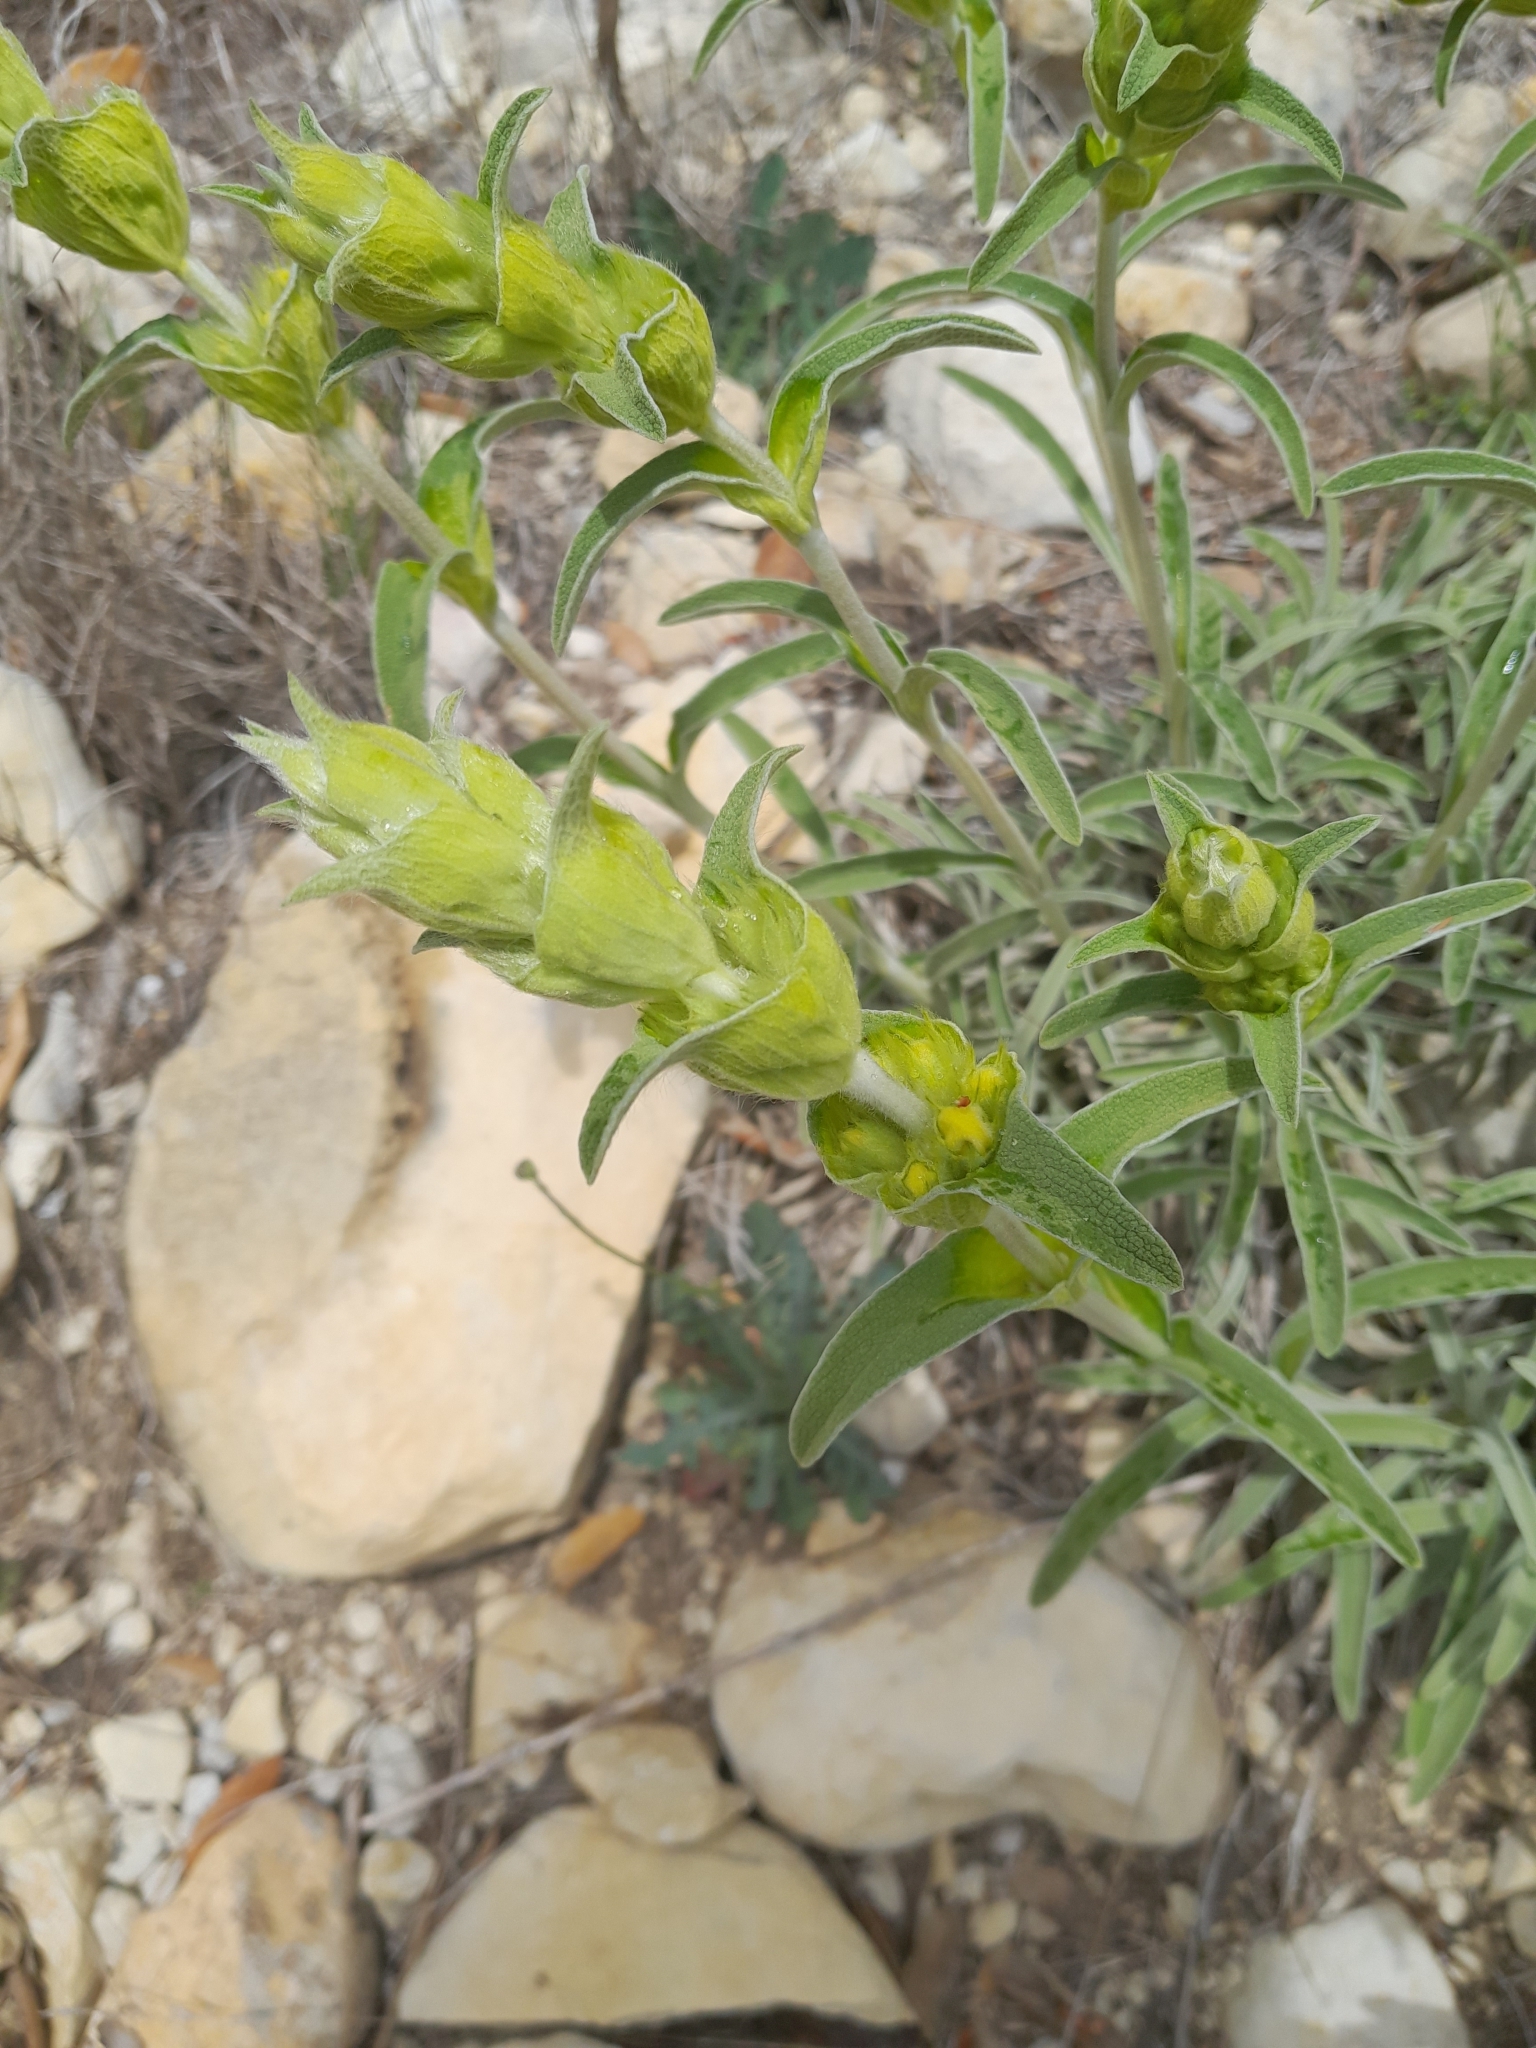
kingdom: Plantae
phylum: Tracheophyta
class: Magnoliopsida
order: Lamiales
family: Lamiaceae
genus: Phlomis
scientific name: Phlomis lychnitis
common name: Lampwickplant
